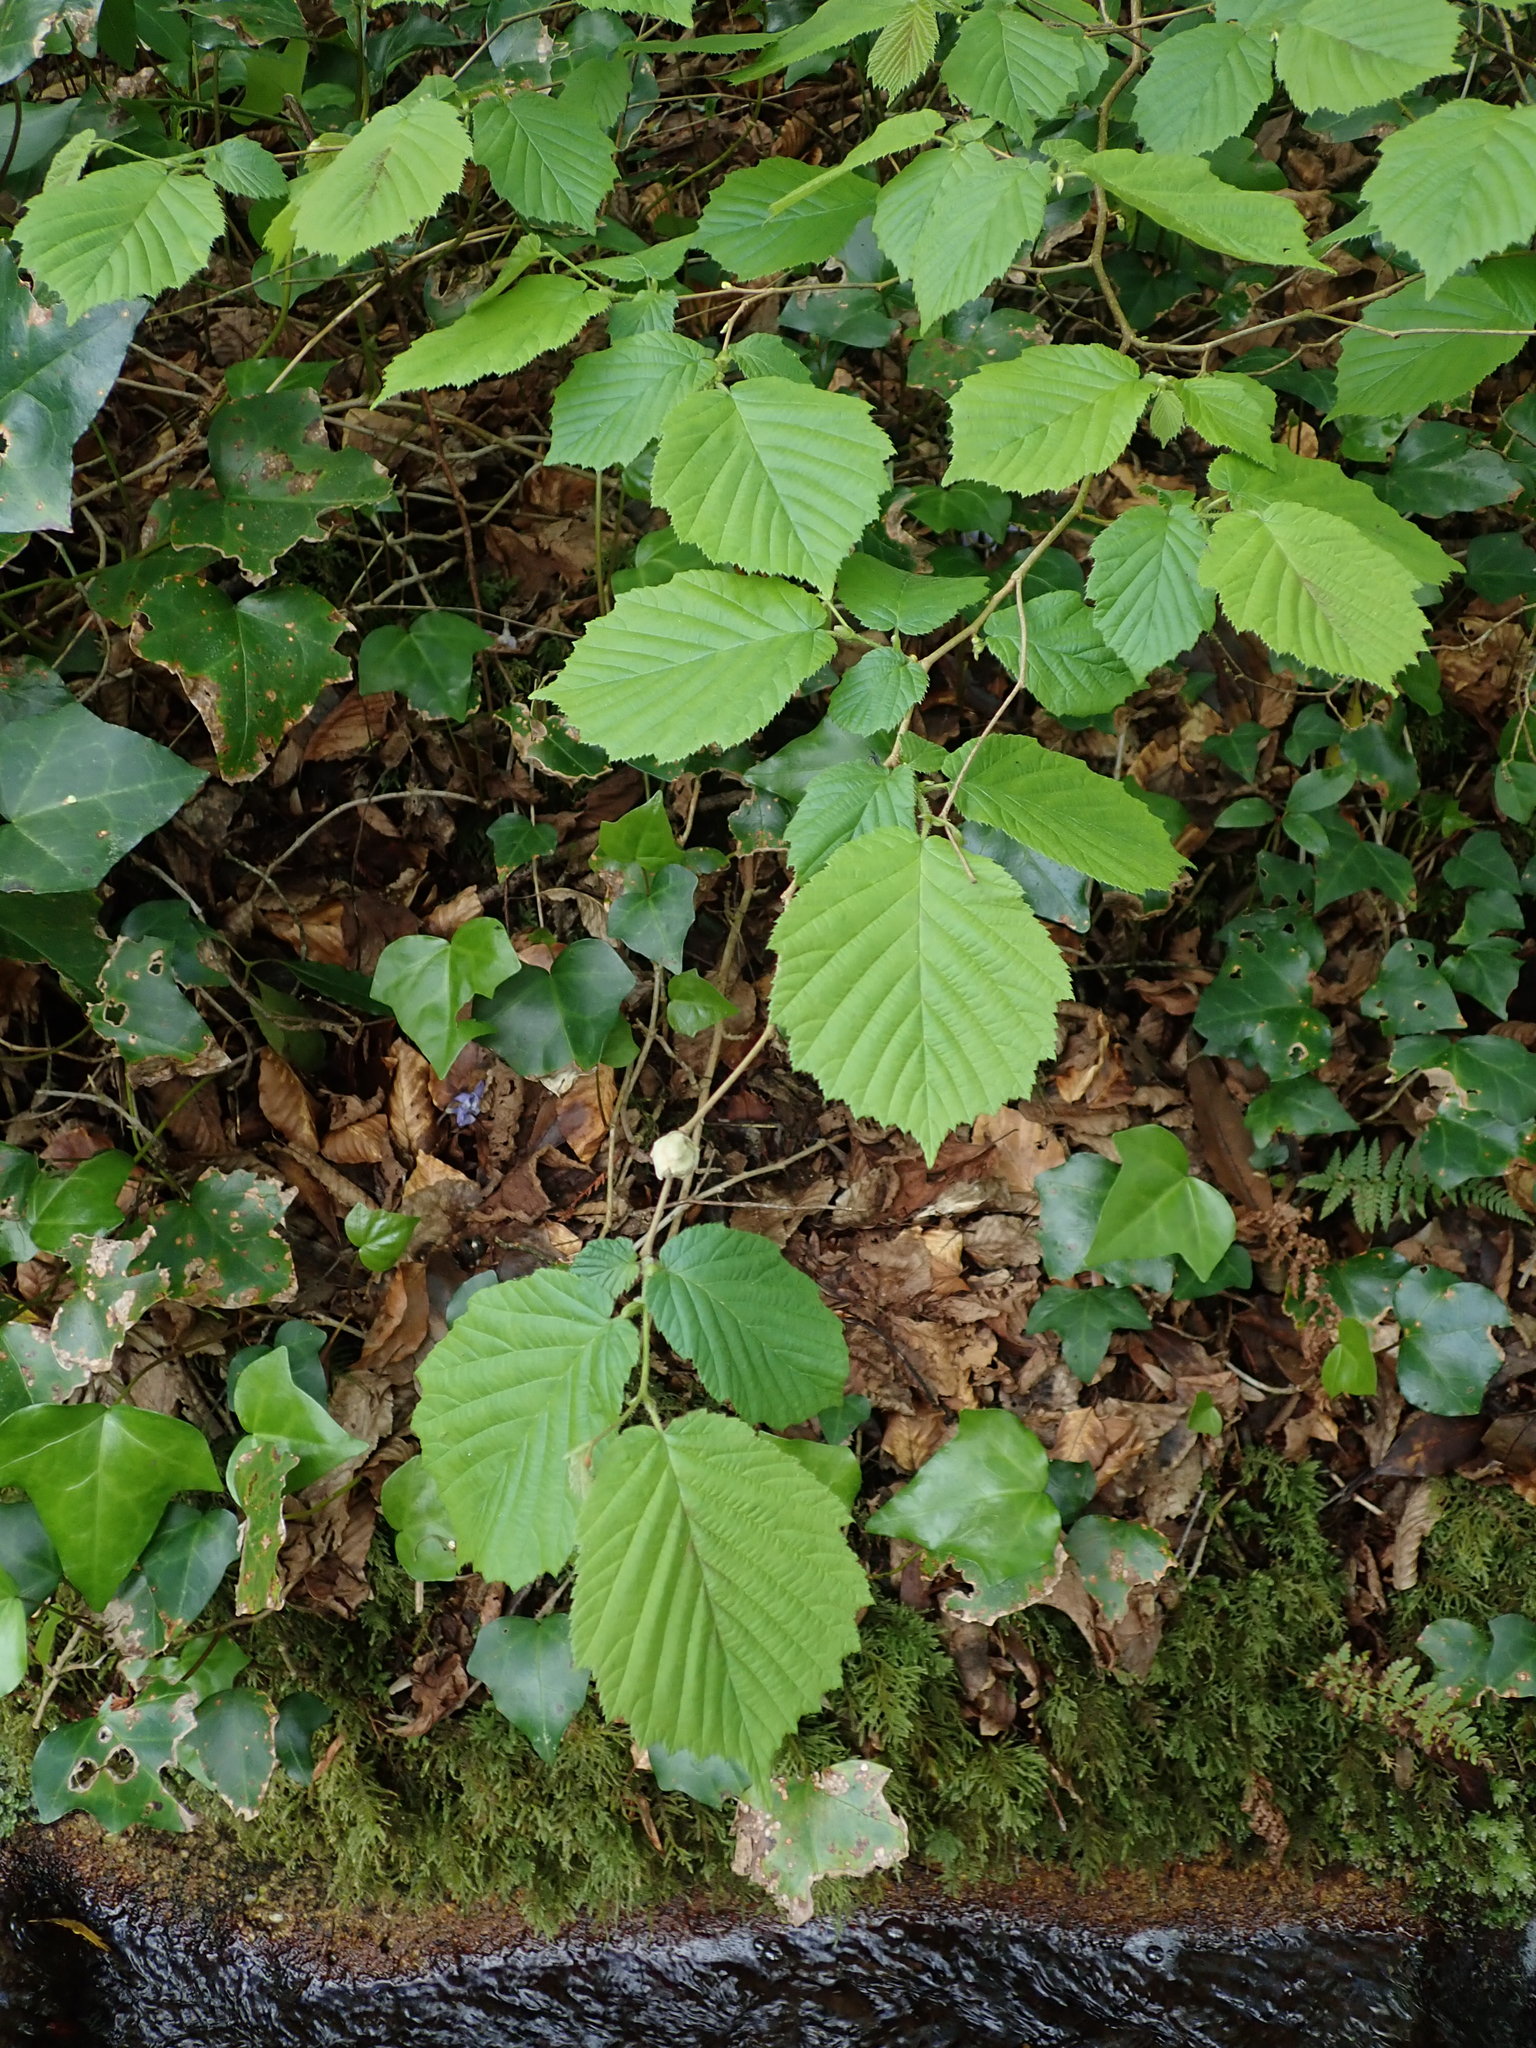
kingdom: Plantae
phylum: Tracheophyta
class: Magnoliopsida
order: Fagales
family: Betulaceae
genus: Corylus
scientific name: Corylus avellana
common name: European hazel
